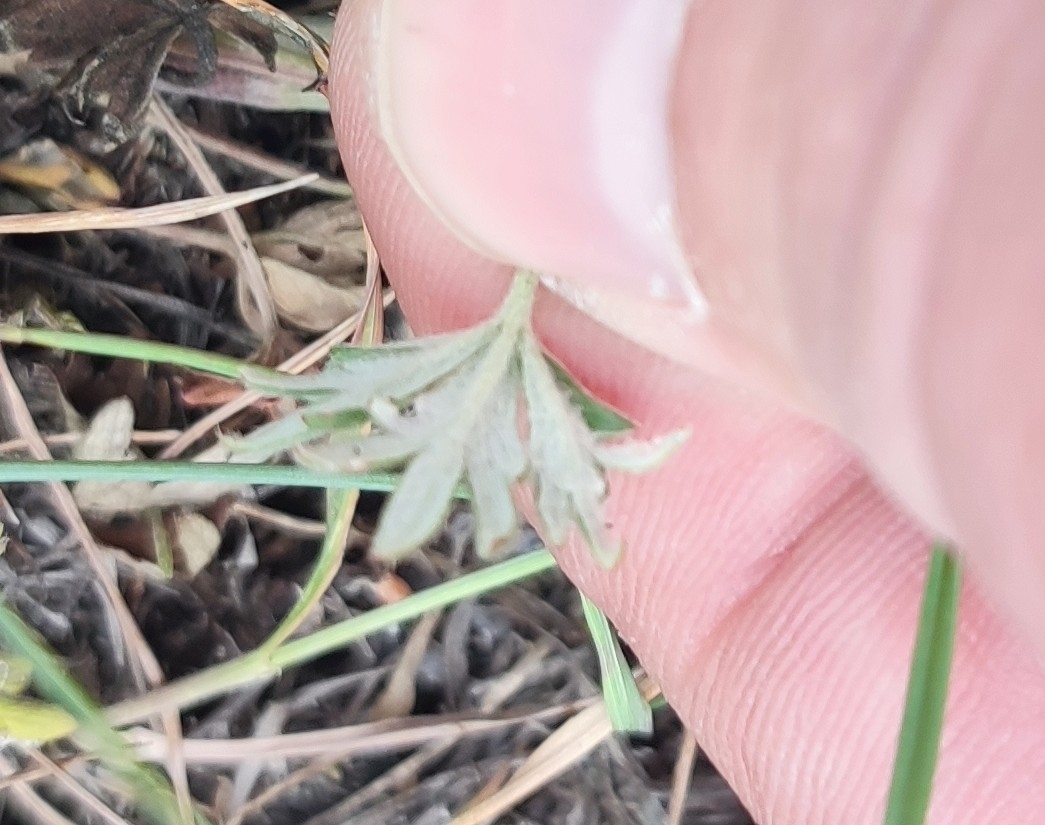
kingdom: Plantae
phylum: Tracheophyta
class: Magnoliopsida
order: Rosales
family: Rosaceae
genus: Potentilla
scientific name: Potentilla argentea
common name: Hoary cinquefoil
